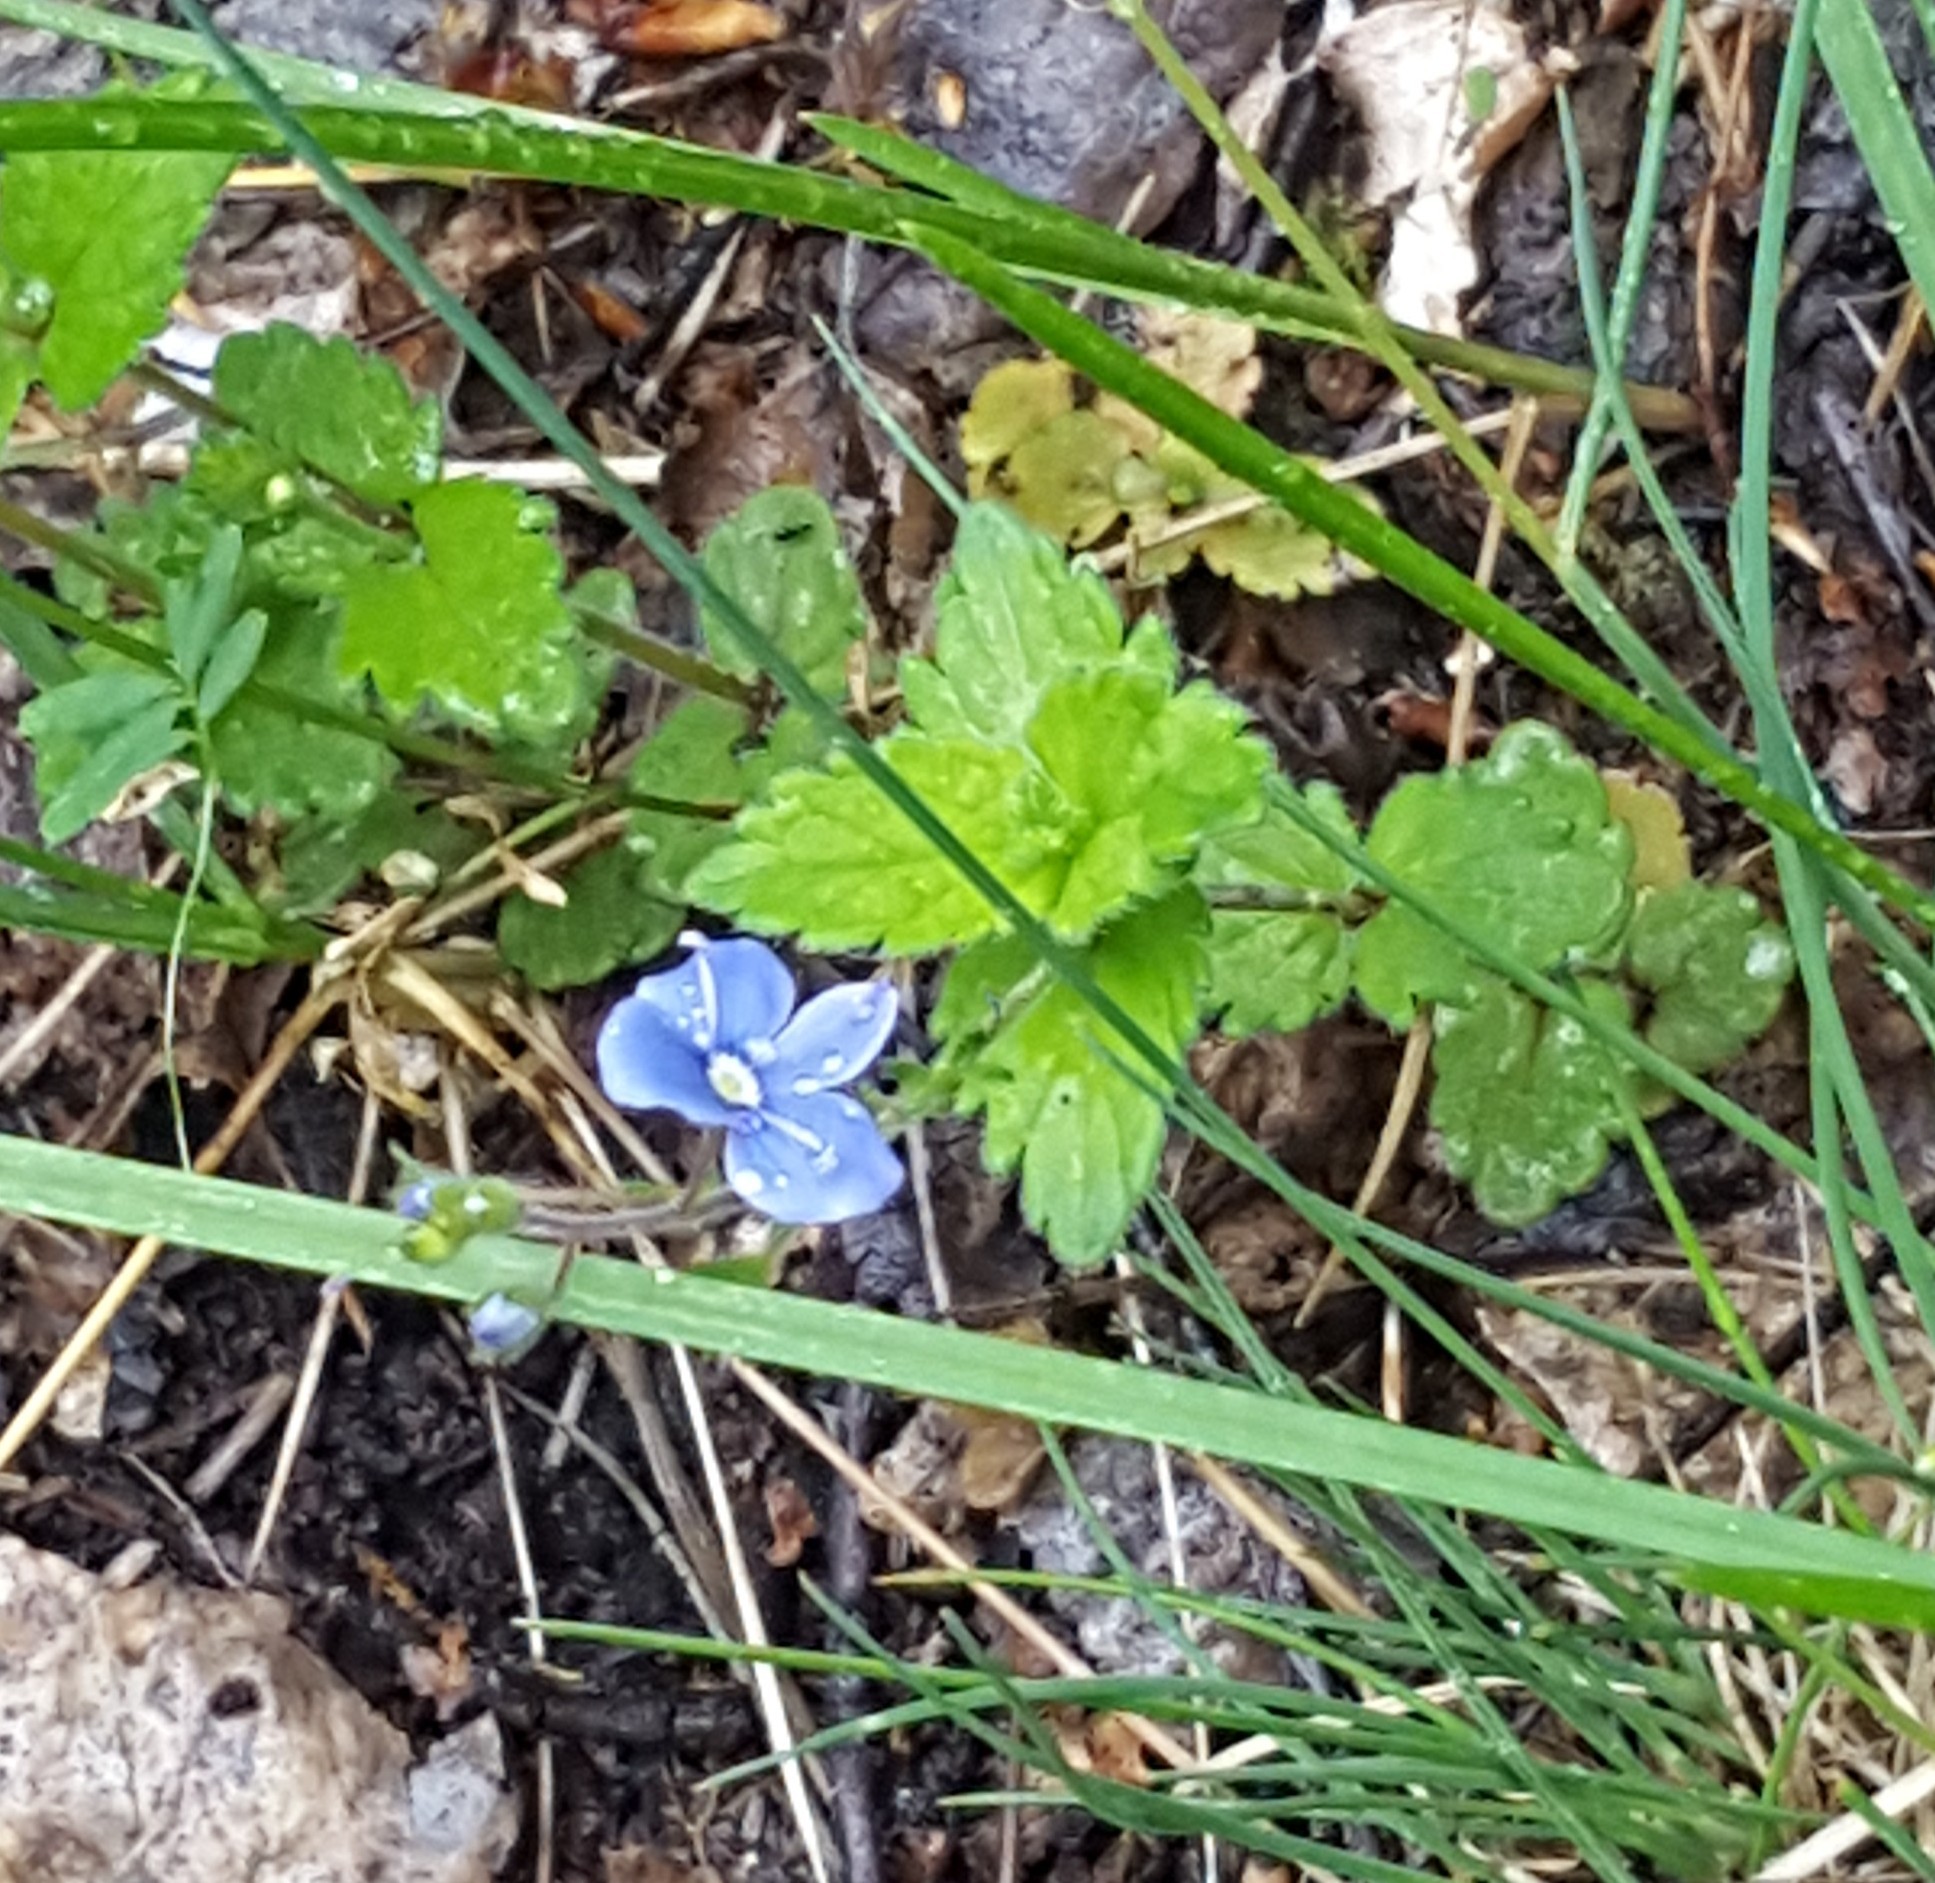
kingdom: Plantae
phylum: Tracheophyta
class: Magnoliopsida
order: Lamiales
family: Plantaginaceae
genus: Veronica
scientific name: Veronica chamaedrys
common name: Germander speedwell
